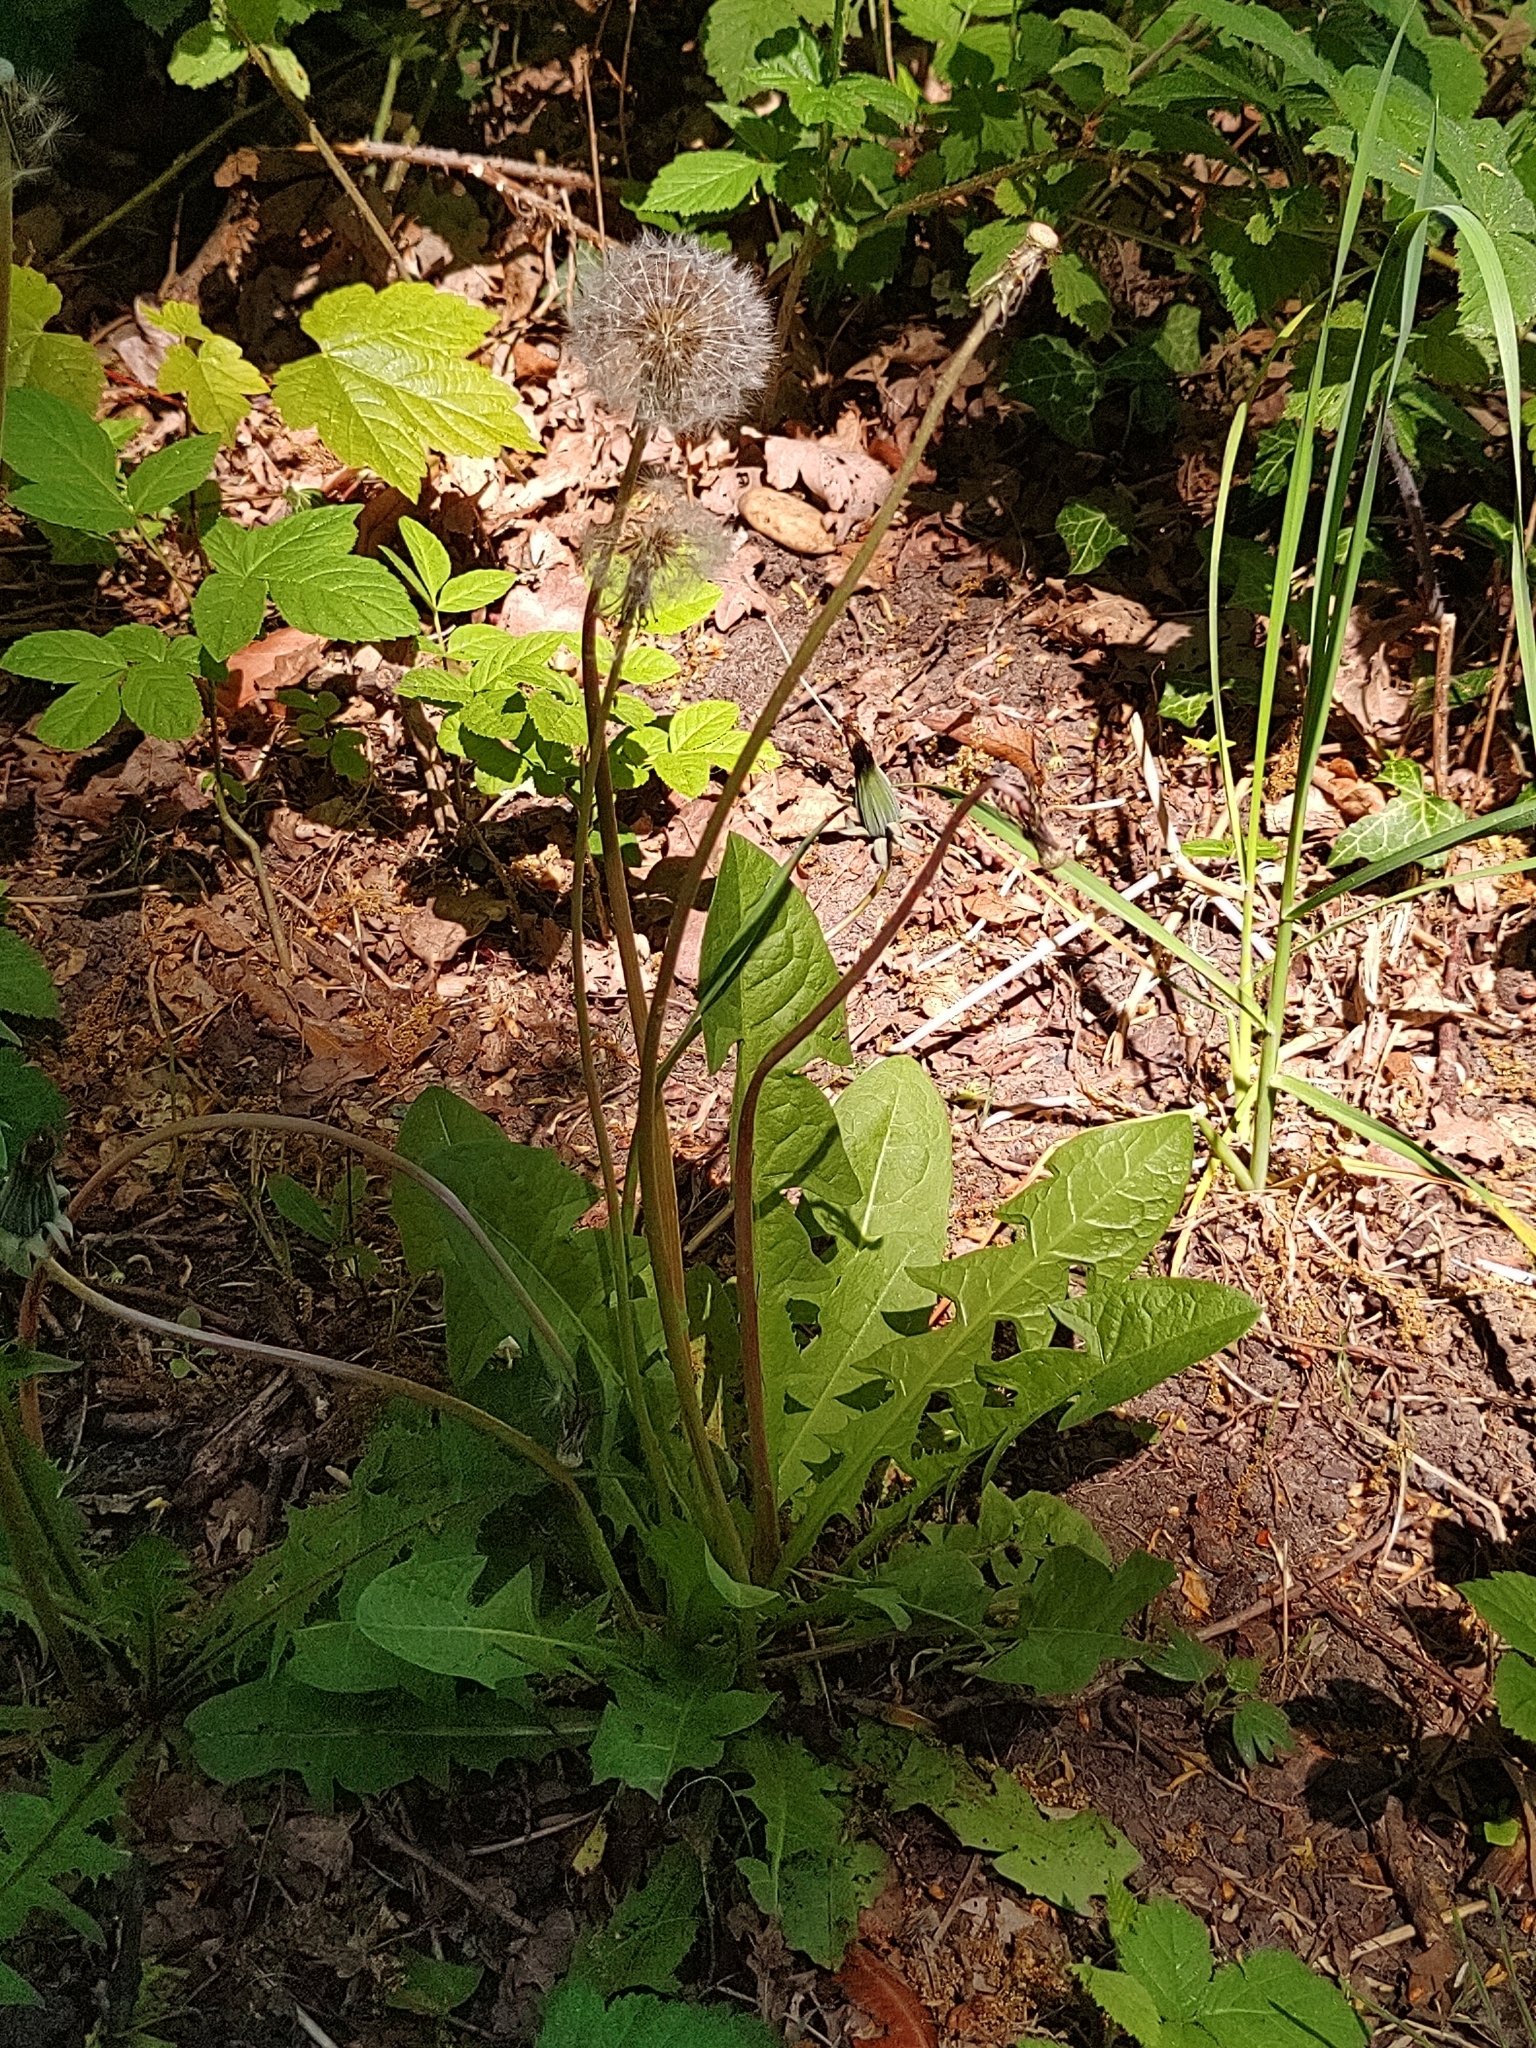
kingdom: Plantae
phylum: Tracheophyta
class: Magnoliopsida
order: Asterales
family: Asteraceae
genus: Taraxacum
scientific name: Taraxacum
